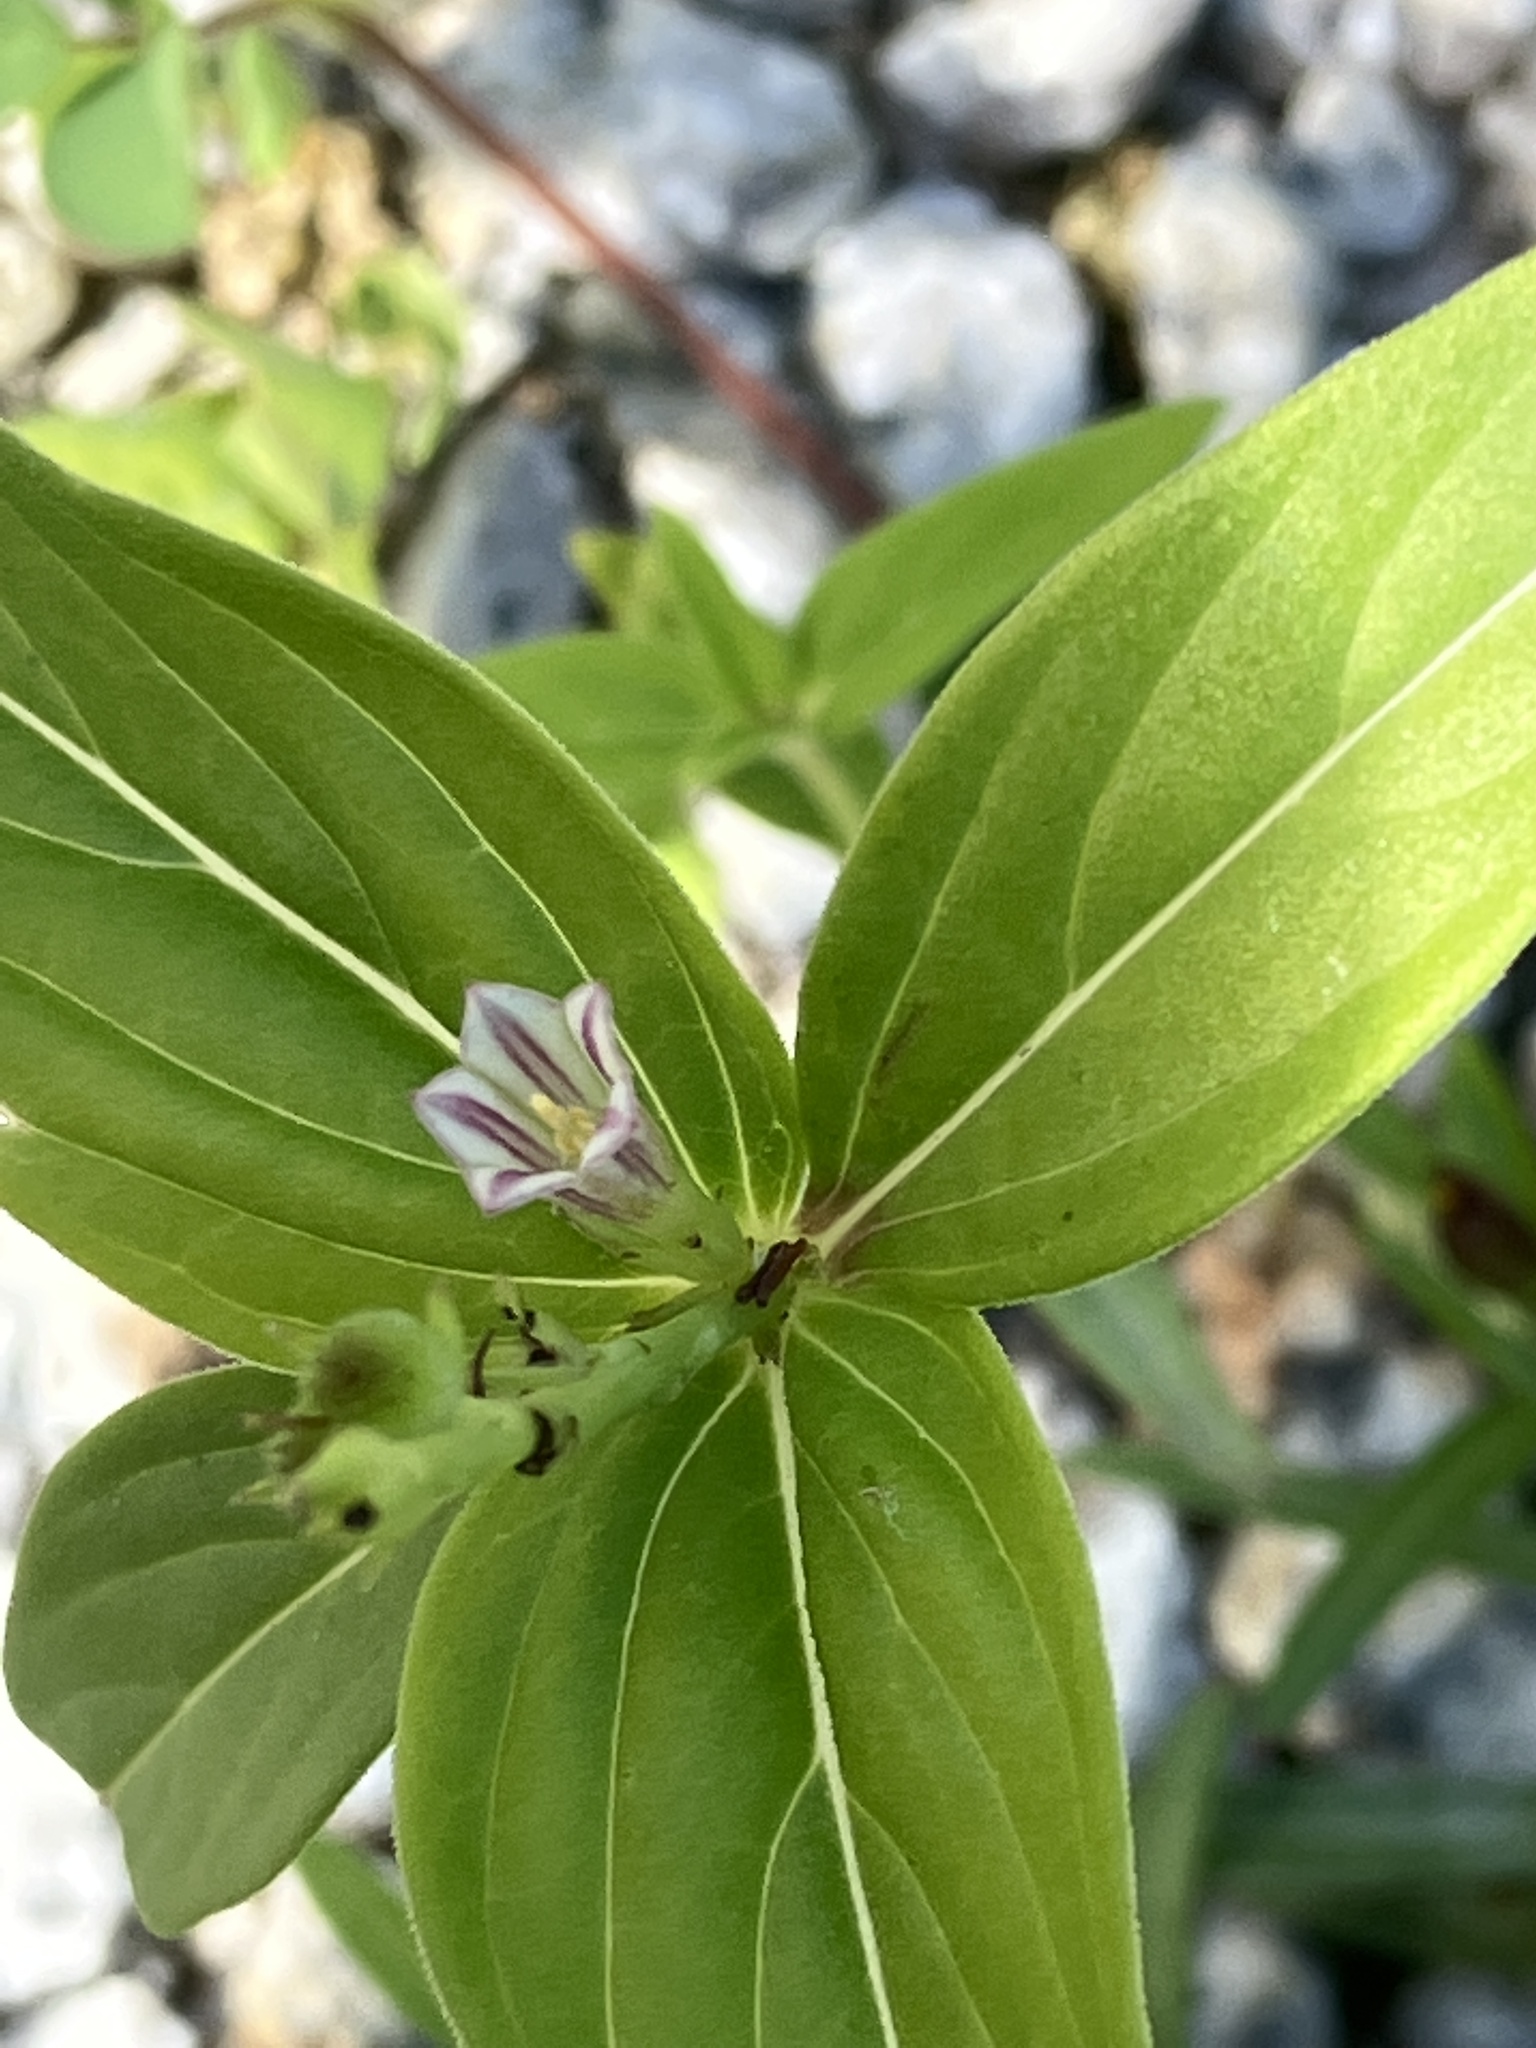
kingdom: Plantae
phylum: Tracheophyta
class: Magnoliopsida
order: Gentianales
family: Loganiaceae
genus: Spigelia
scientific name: Spigelia anthelmia
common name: West indian-pink
